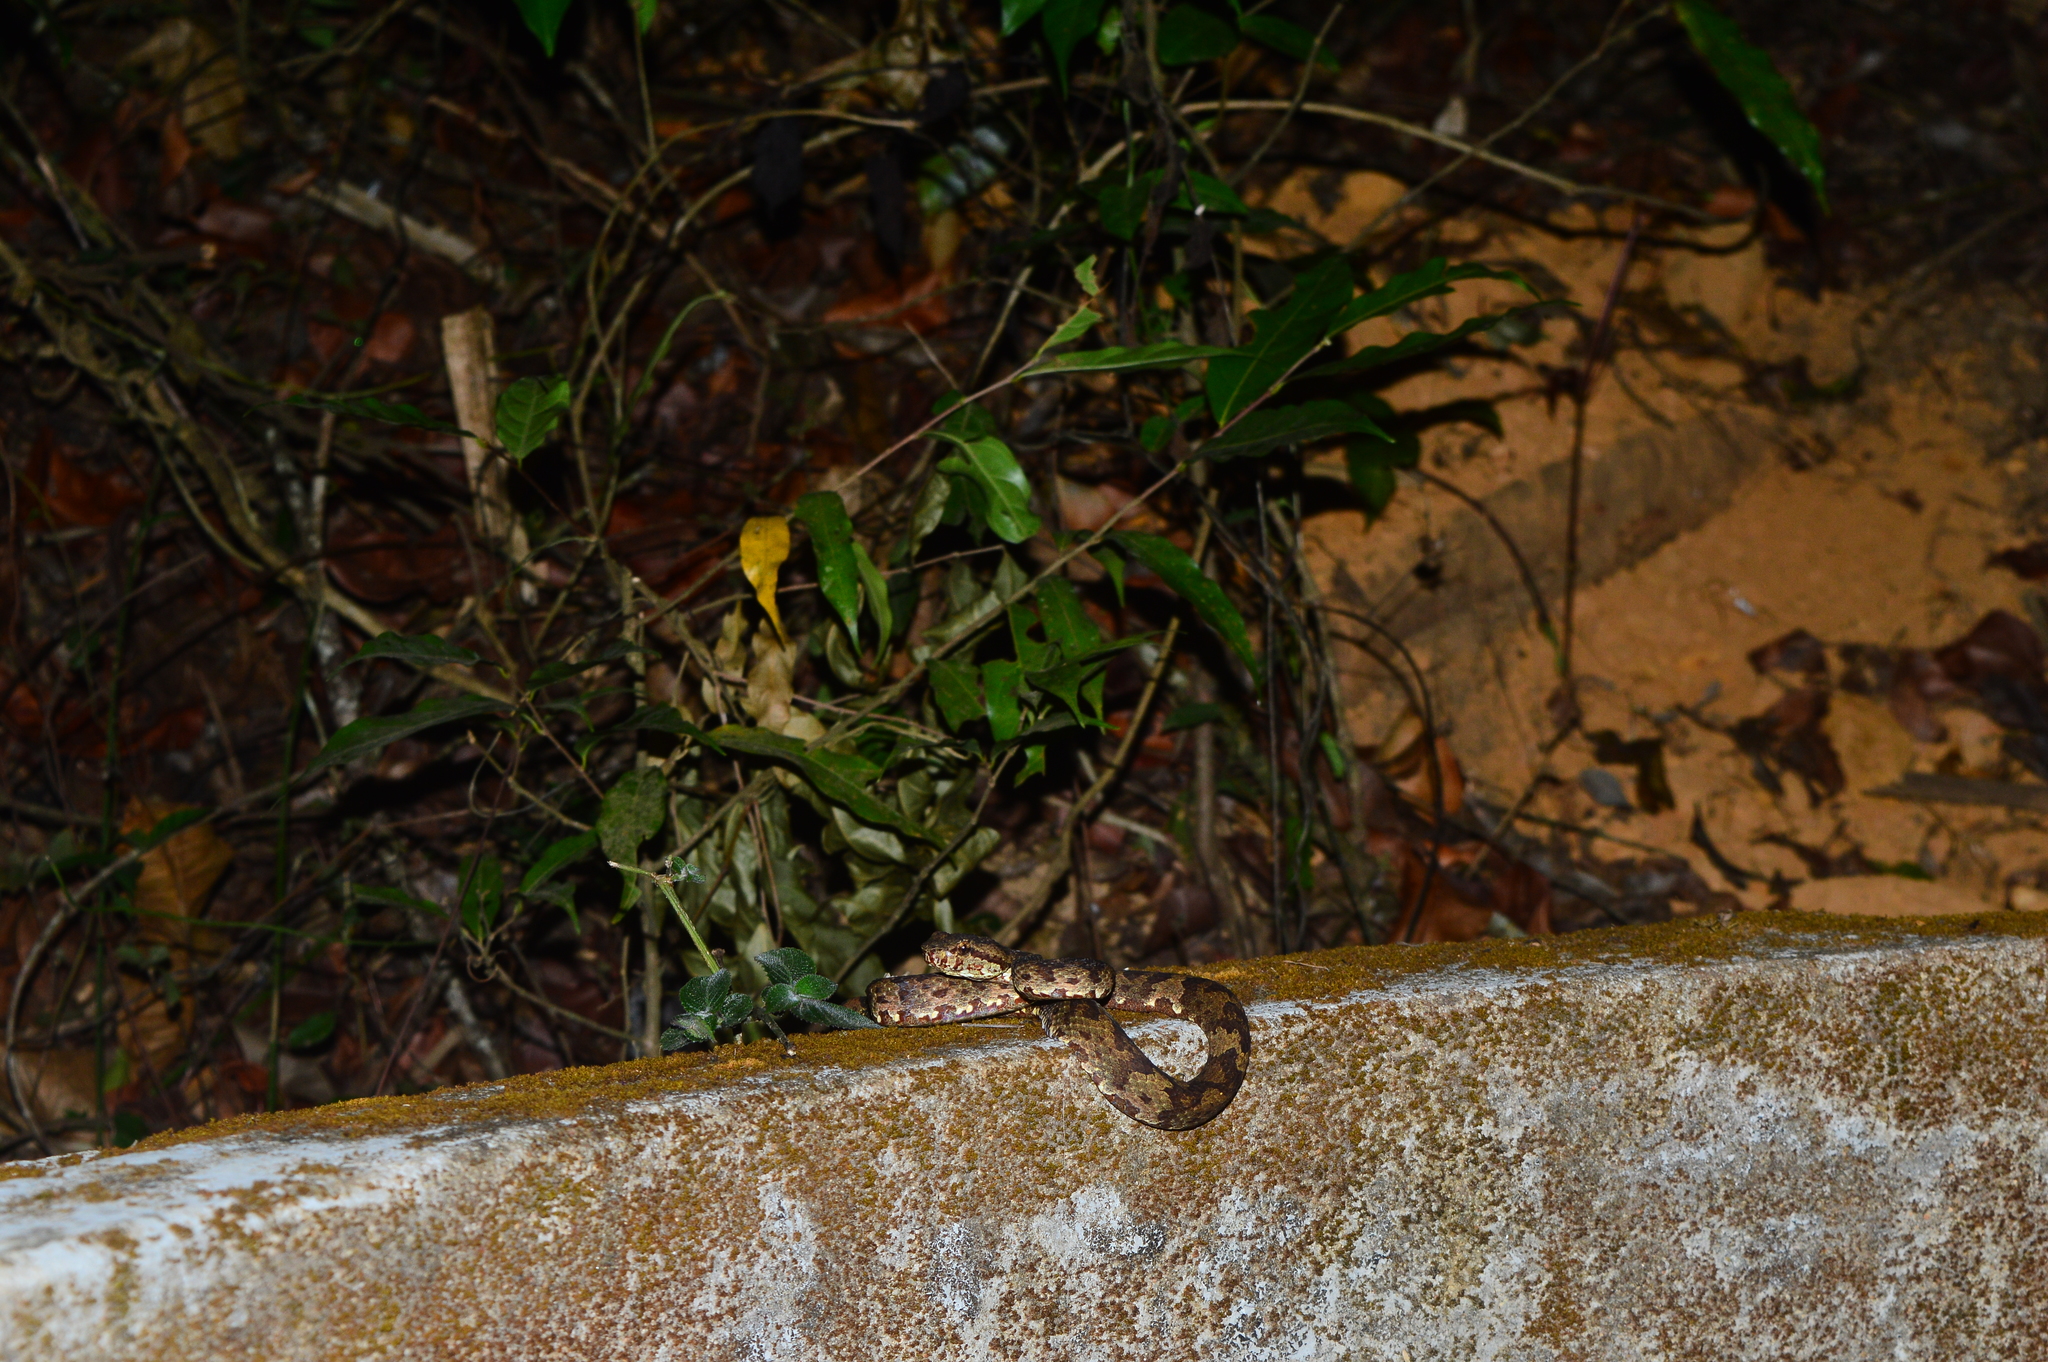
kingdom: Animalia
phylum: Chordata
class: Squamata
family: Viperidae
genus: Craspedocephalus
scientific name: Craspedocephalus malabaricus
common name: Malabarian pit viper
